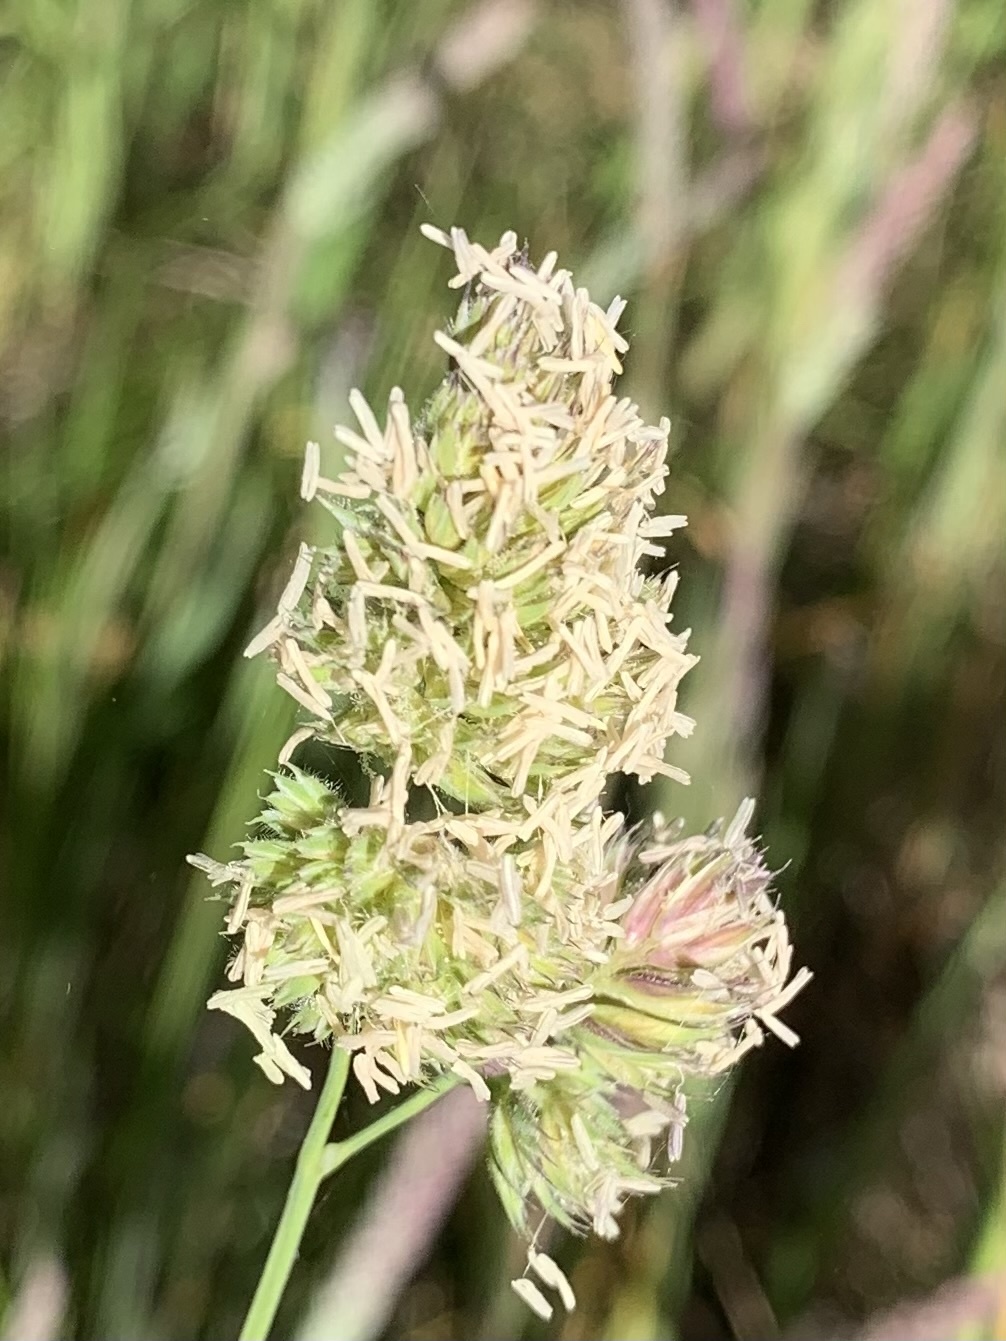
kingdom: Plantae
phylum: Tracheophyta
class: Liliopsida
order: Poales
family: Poaceae
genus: Dactylis
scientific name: Dactylis glomerata
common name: Orchardgrass
